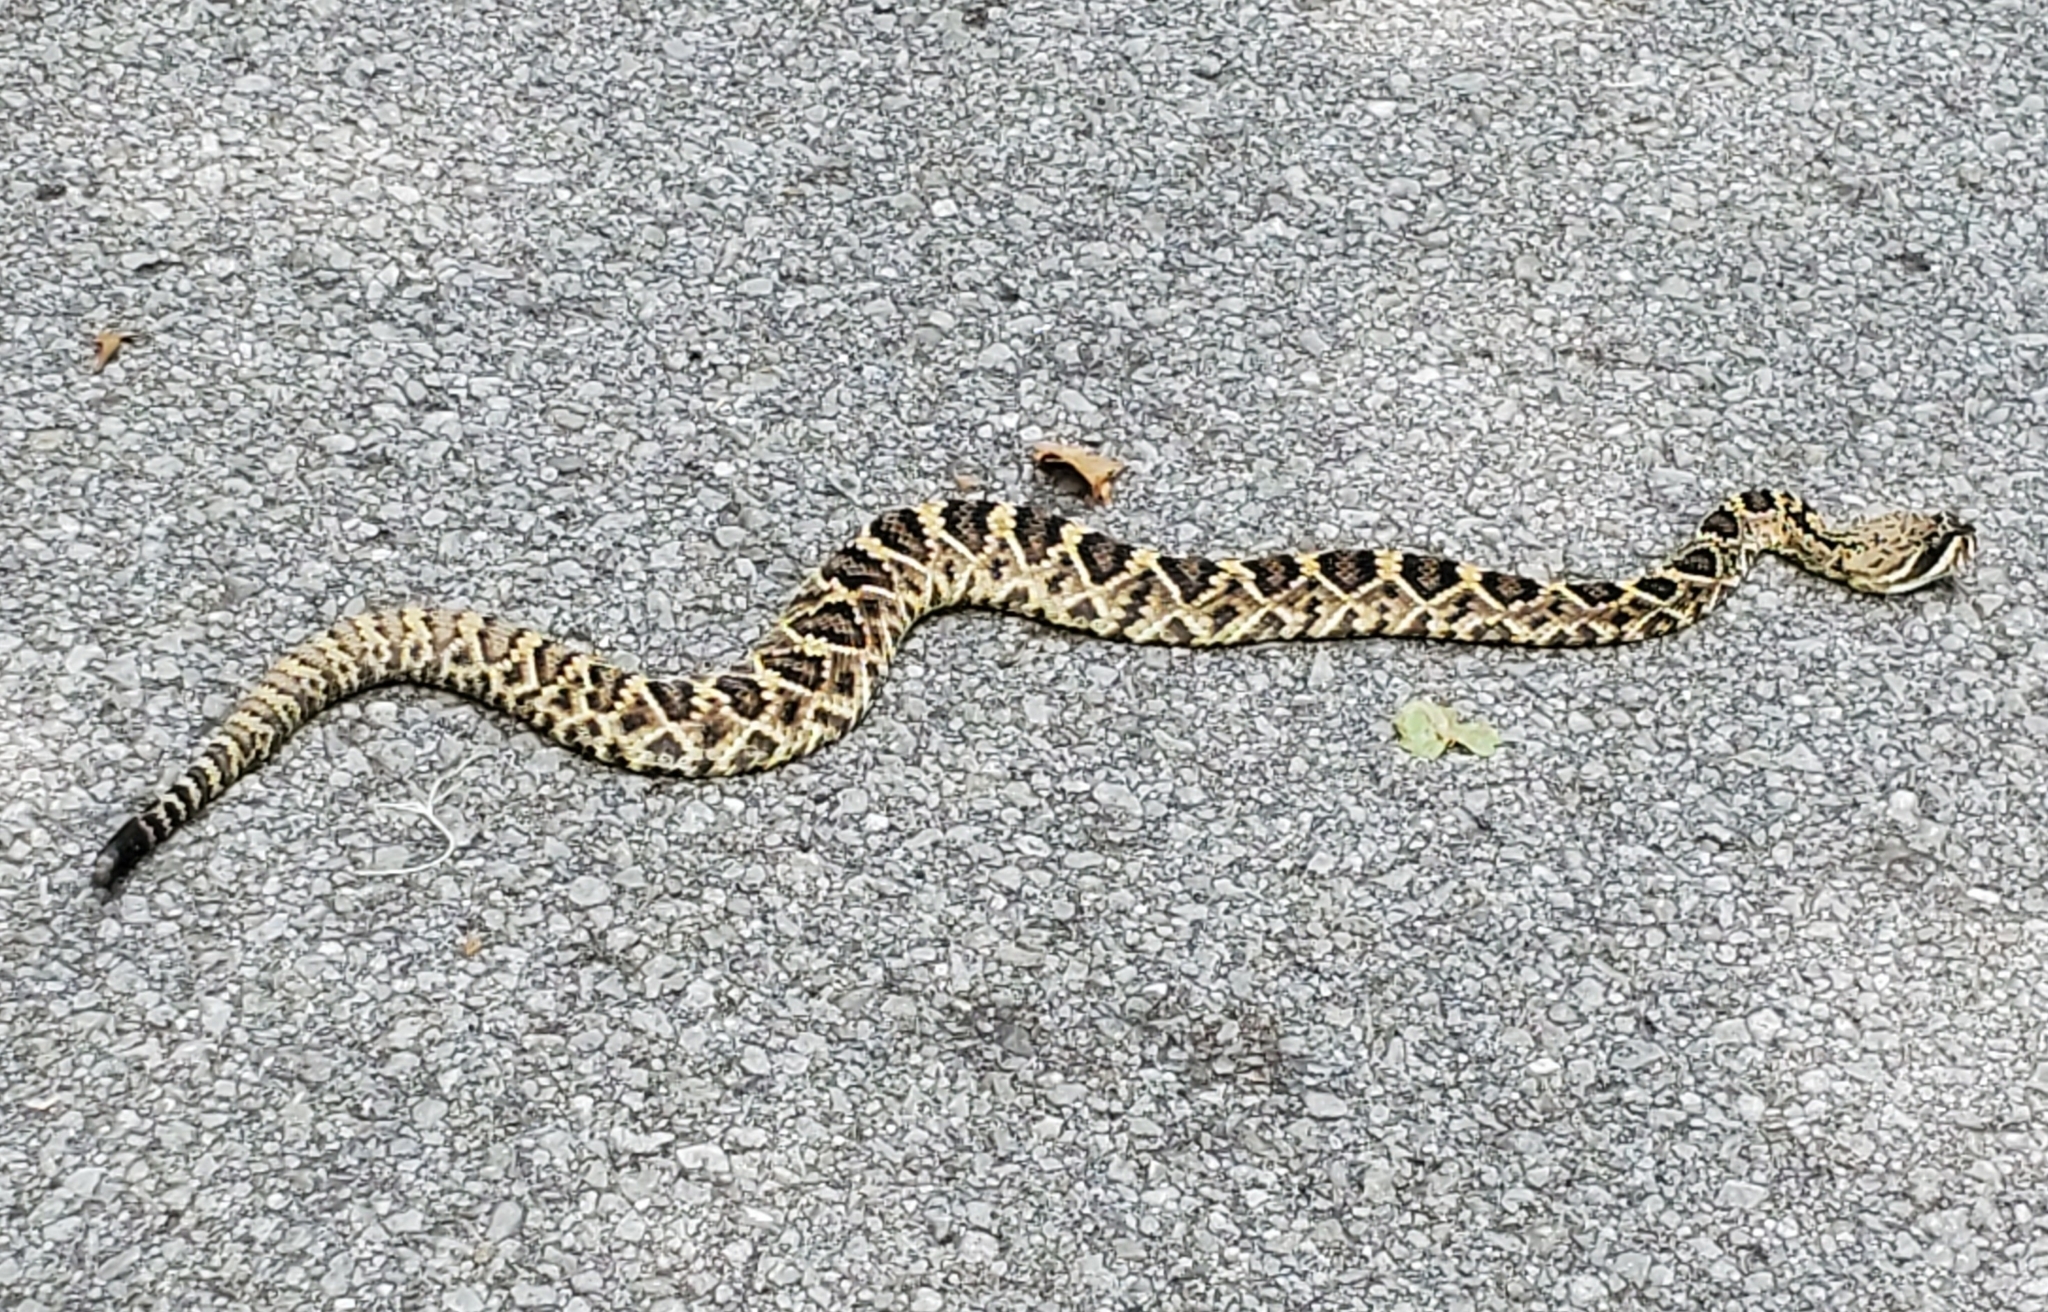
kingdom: Animalia
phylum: Chordata
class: Squamata
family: Viperidae
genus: Crotalus
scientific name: Crotalus adamanteus
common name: Eastern diamondback rattlesnake
